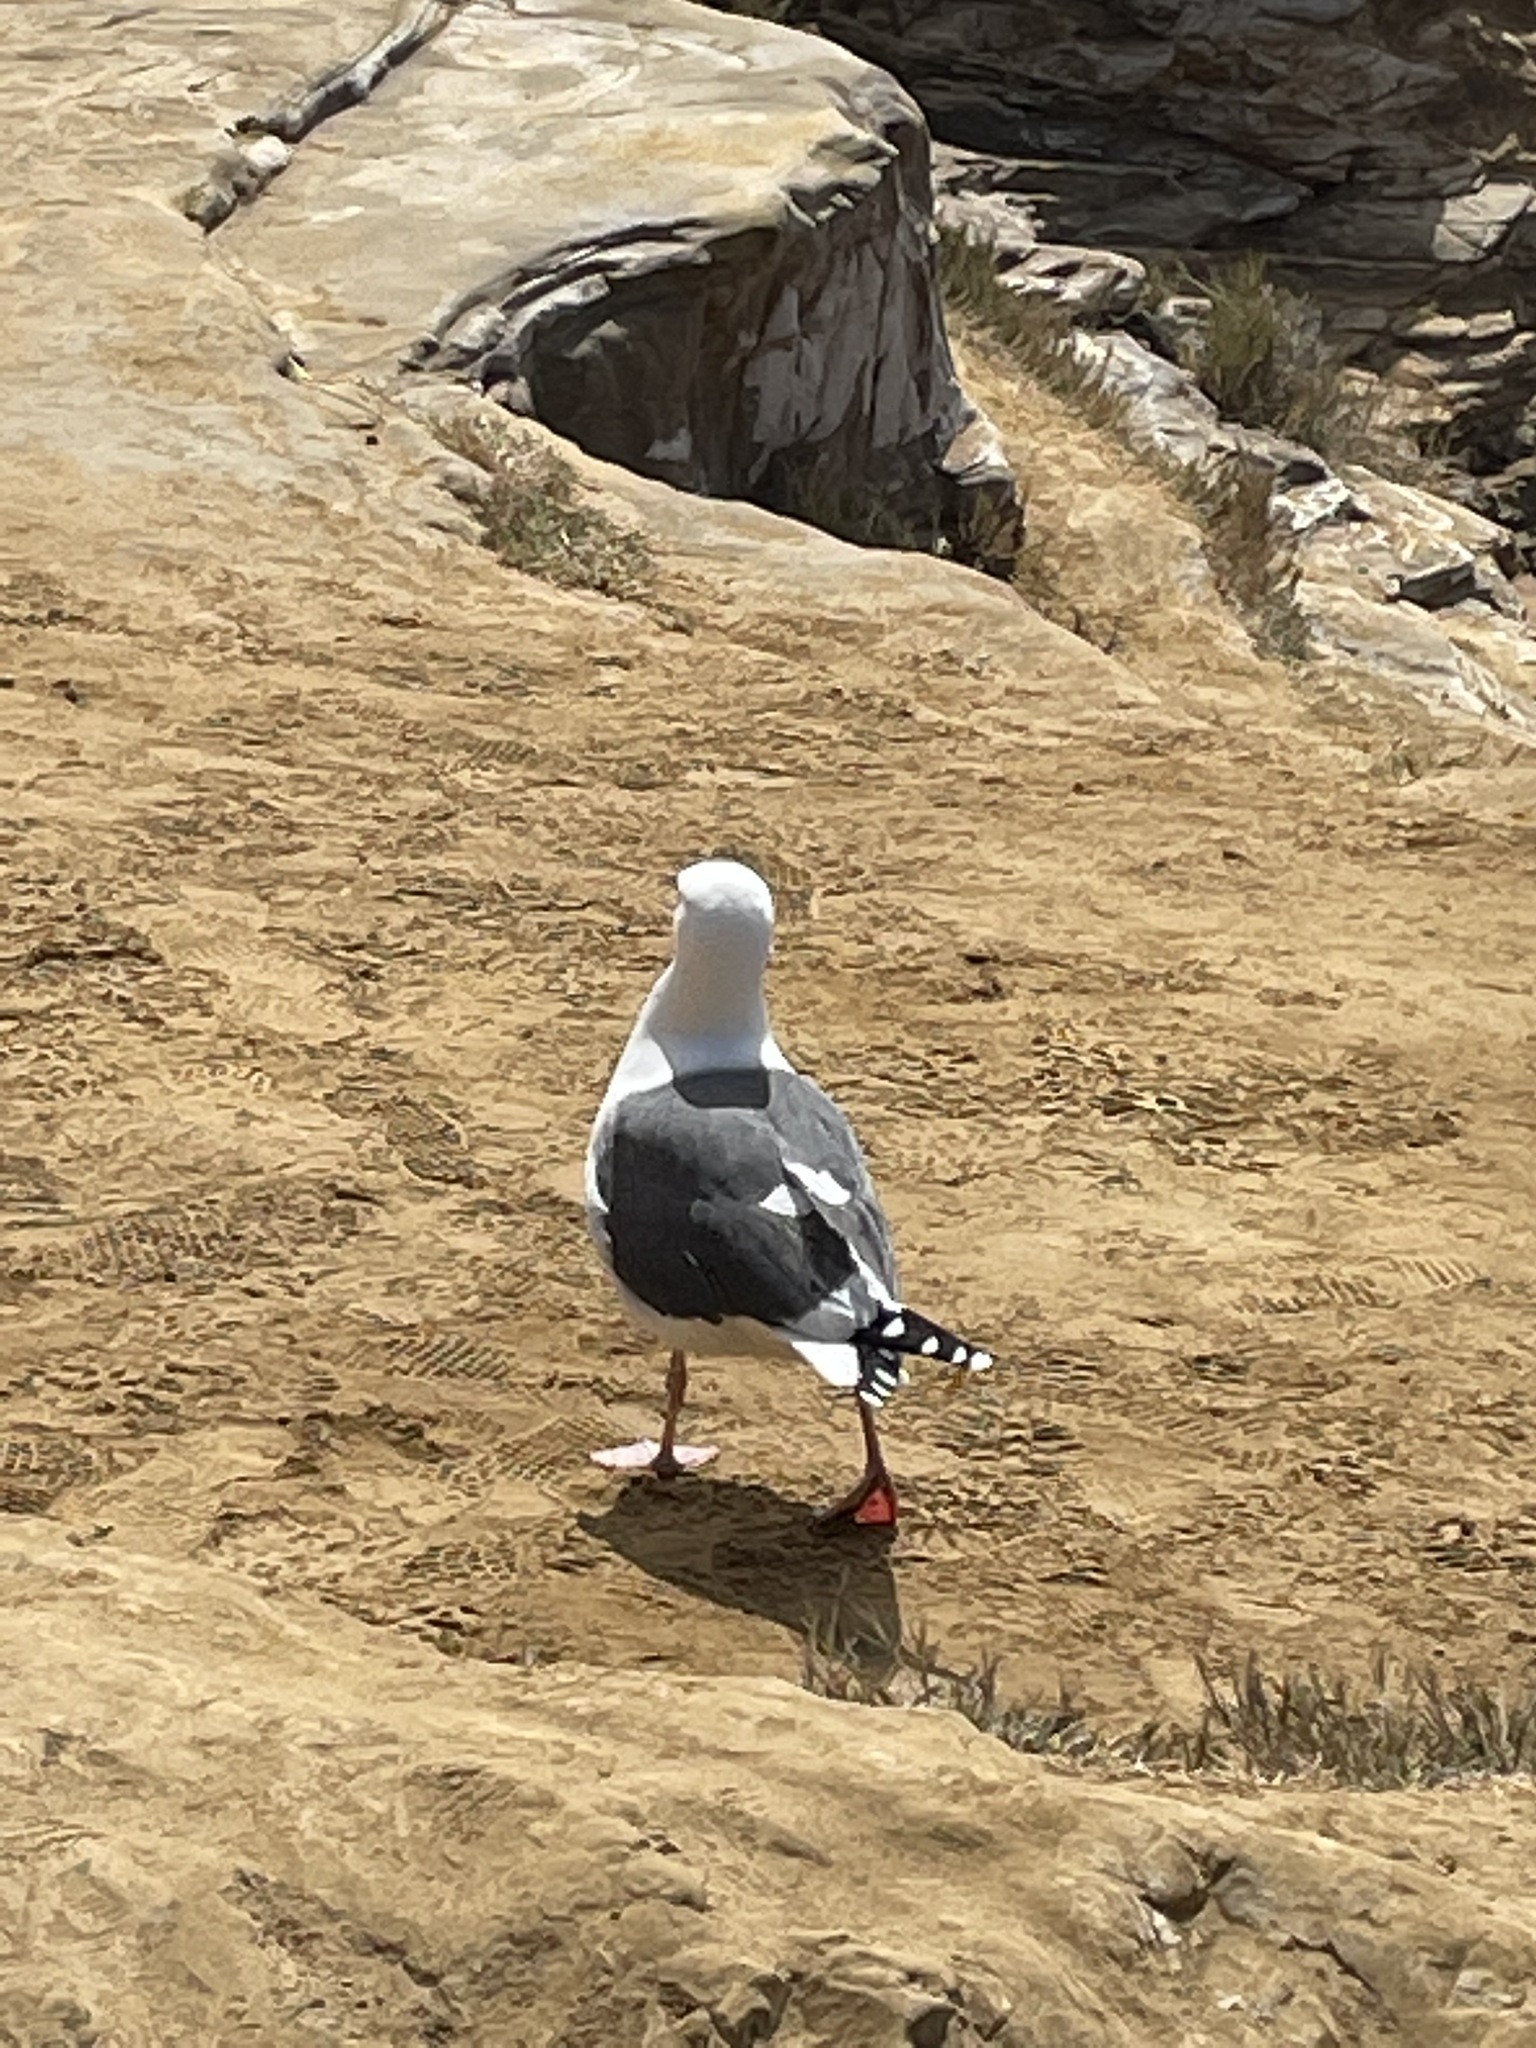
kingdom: Animalia
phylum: Chordata
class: Aves
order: Charadriiformes
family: Laridae
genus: Larus
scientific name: Larus occidentalis
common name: Western gull
